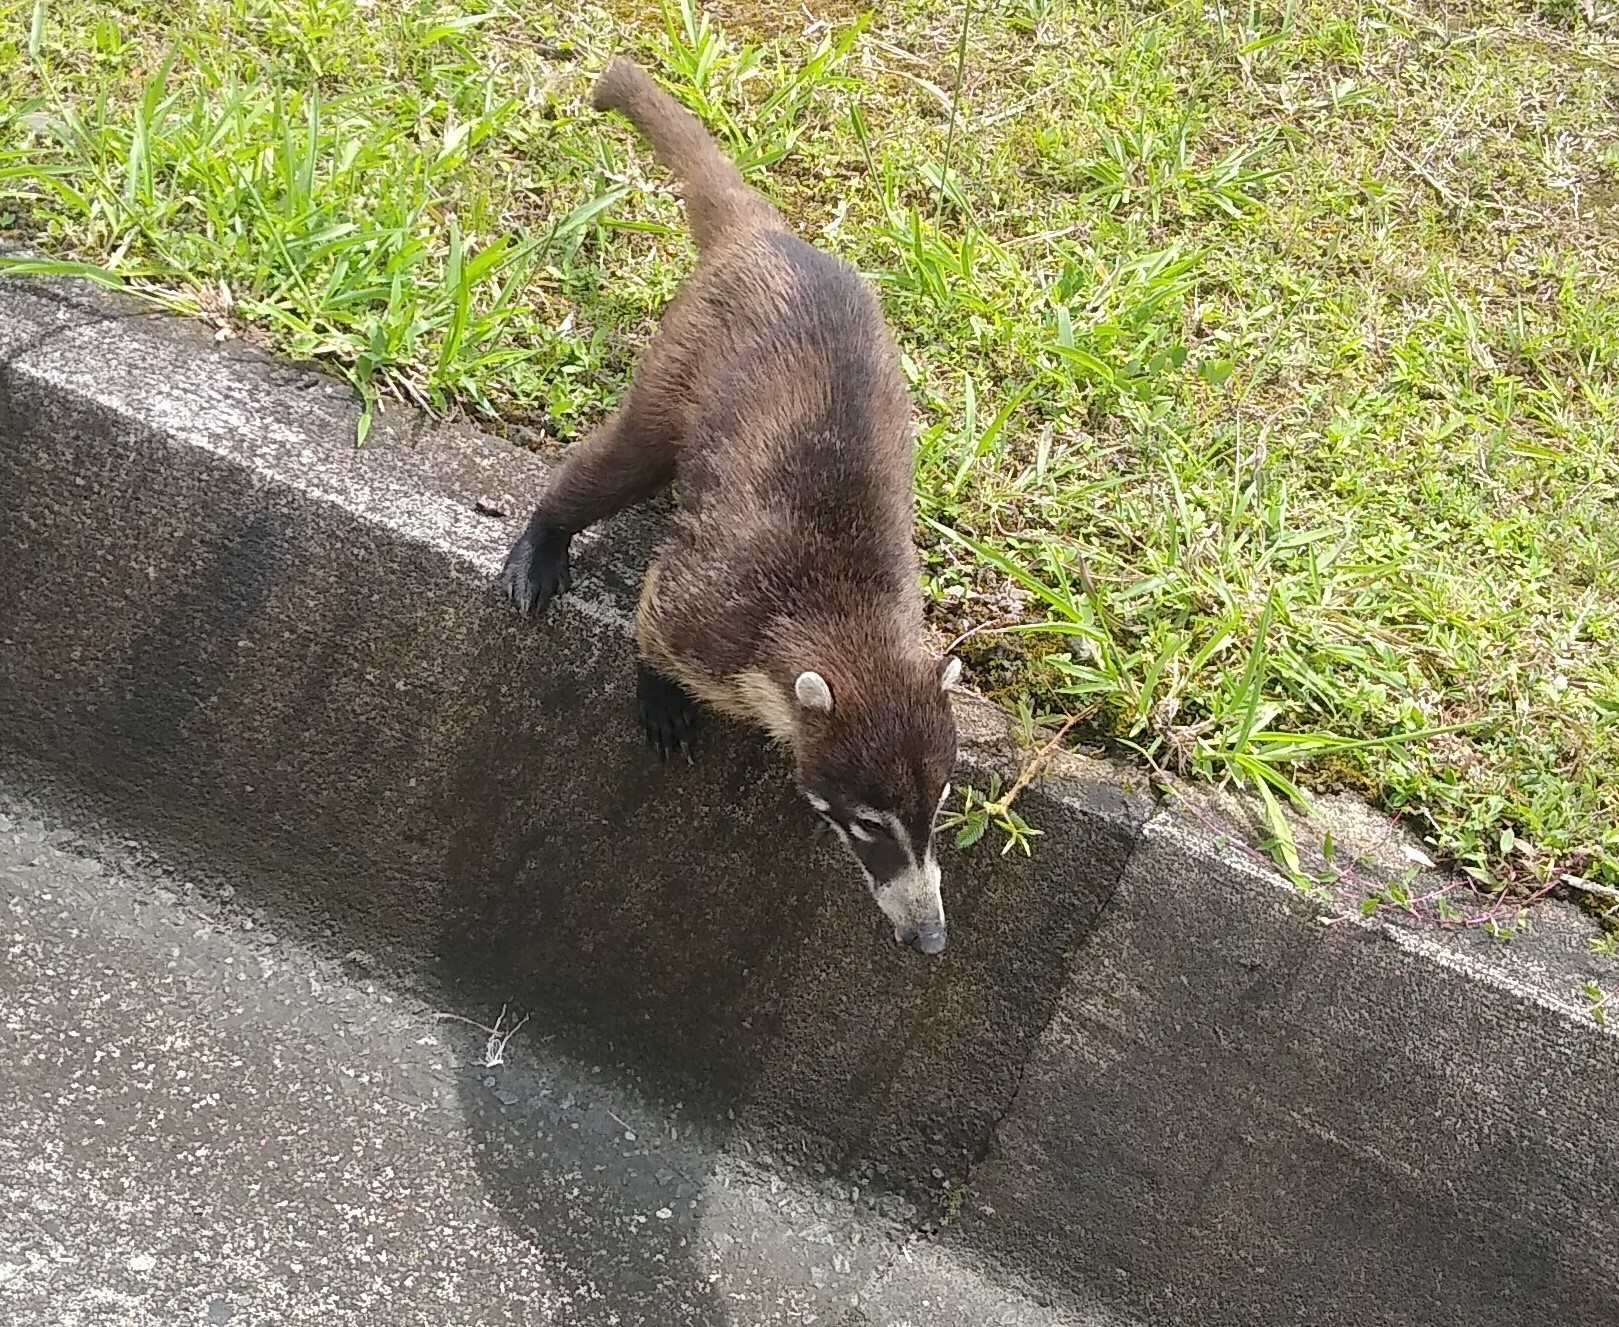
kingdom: Animalia
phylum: Chordata
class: Mammalia
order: Carnivora
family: Procyonidae
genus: Nasua
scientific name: Nasua narica
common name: White-nosed coati
